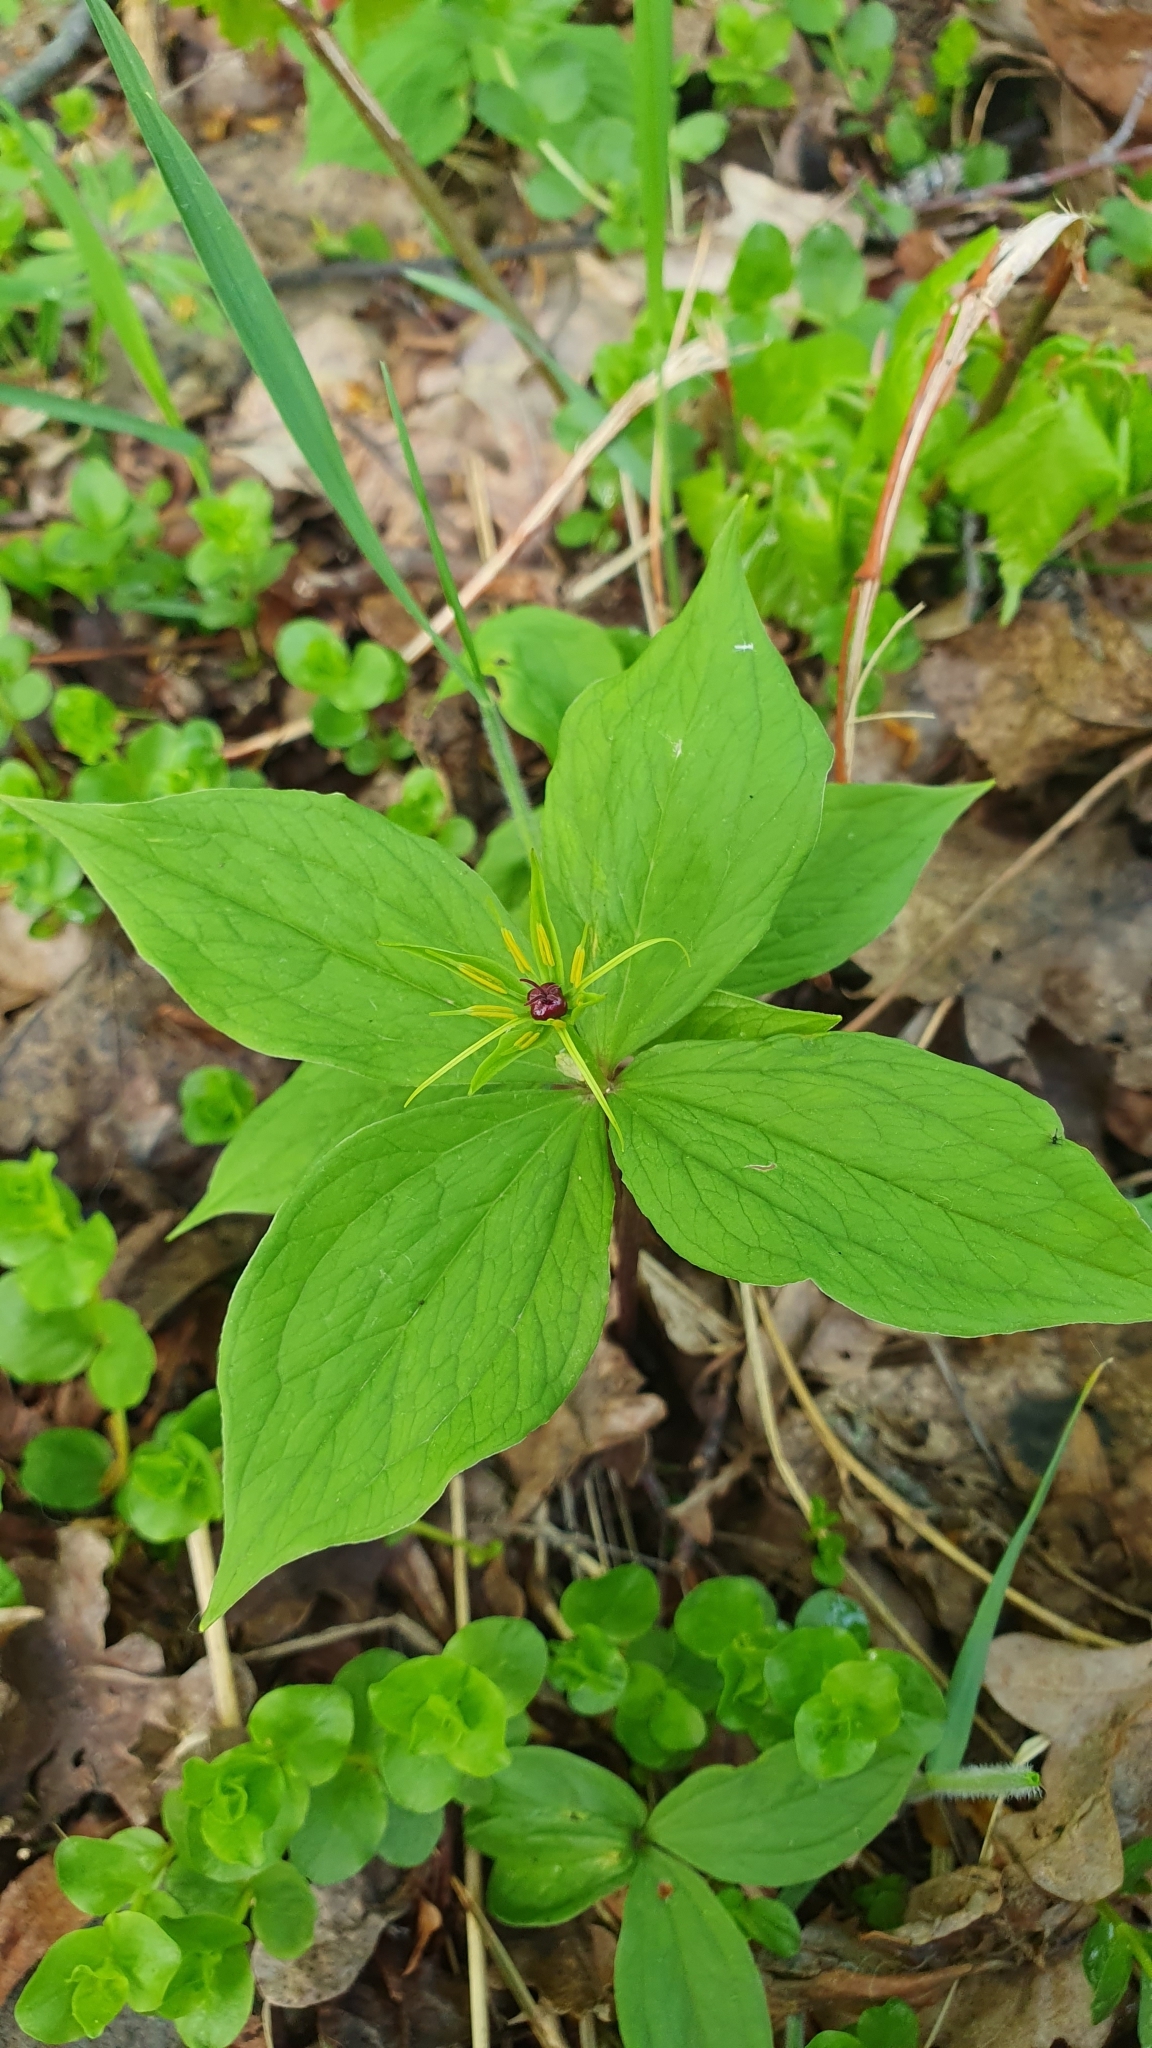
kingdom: Plantae
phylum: Tracheophyta
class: Liliopsida
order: Liliales
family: Melanthiaceae
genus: Paris
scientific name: Paris quadrifolia
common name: Herb-paris
